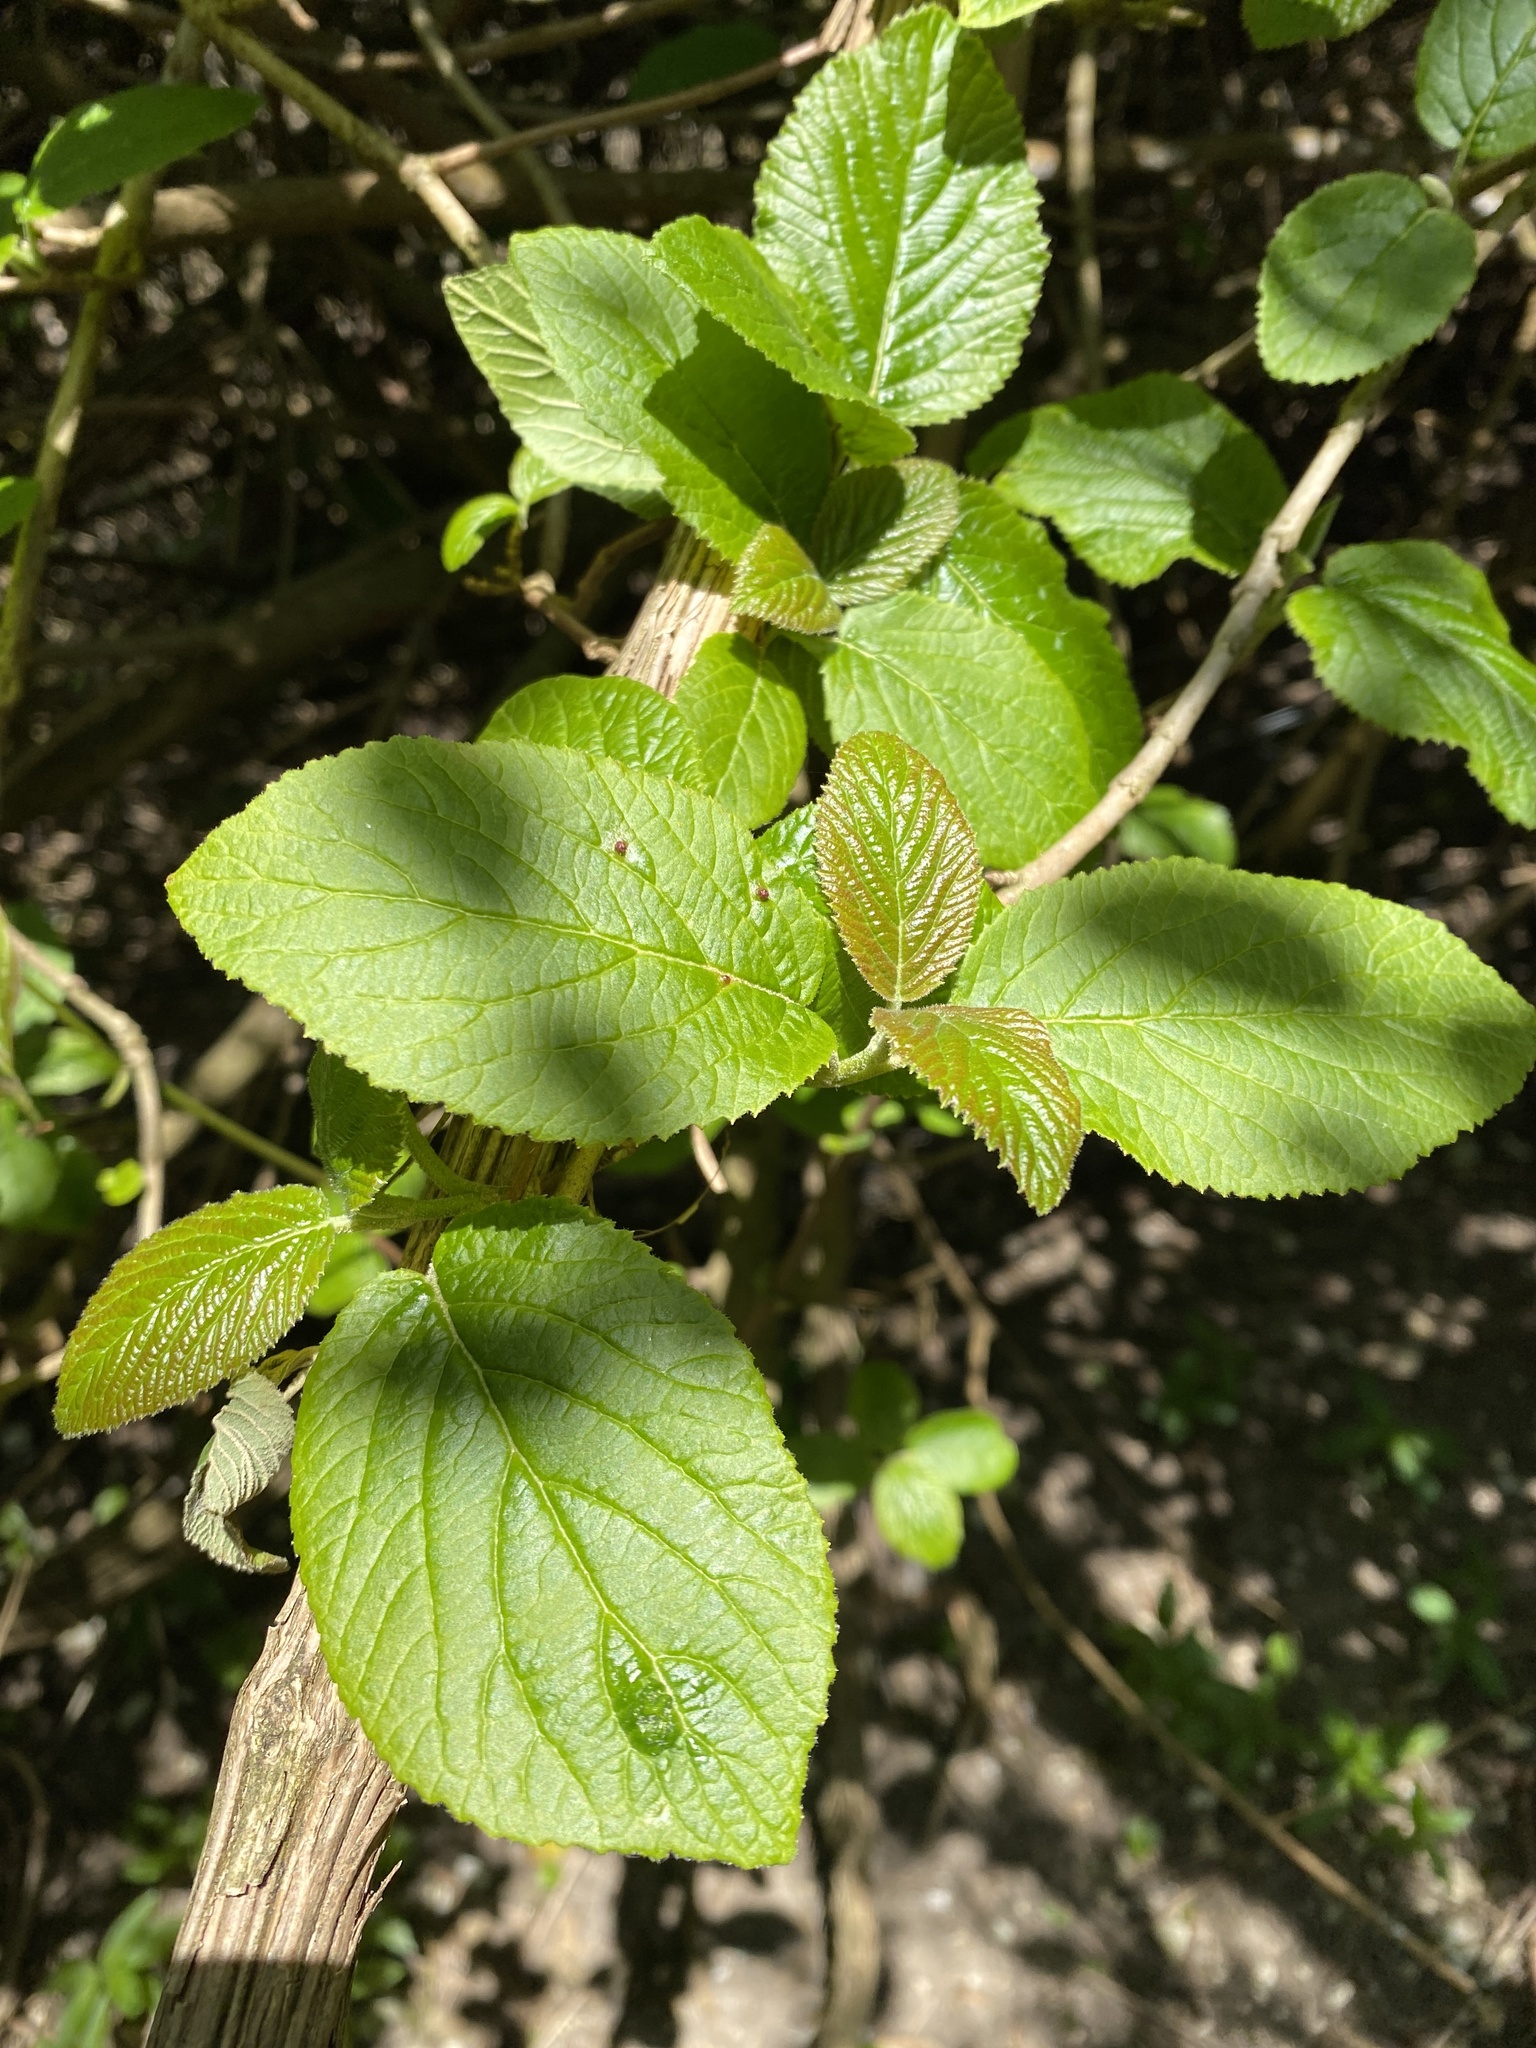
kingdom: Plantae
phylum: Tracheophyta
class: Magnoliopsida
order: Dipsacales
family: Viburnaceae
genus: Viburnum
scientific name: Viburnum lantana
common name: Wayfaring tree
